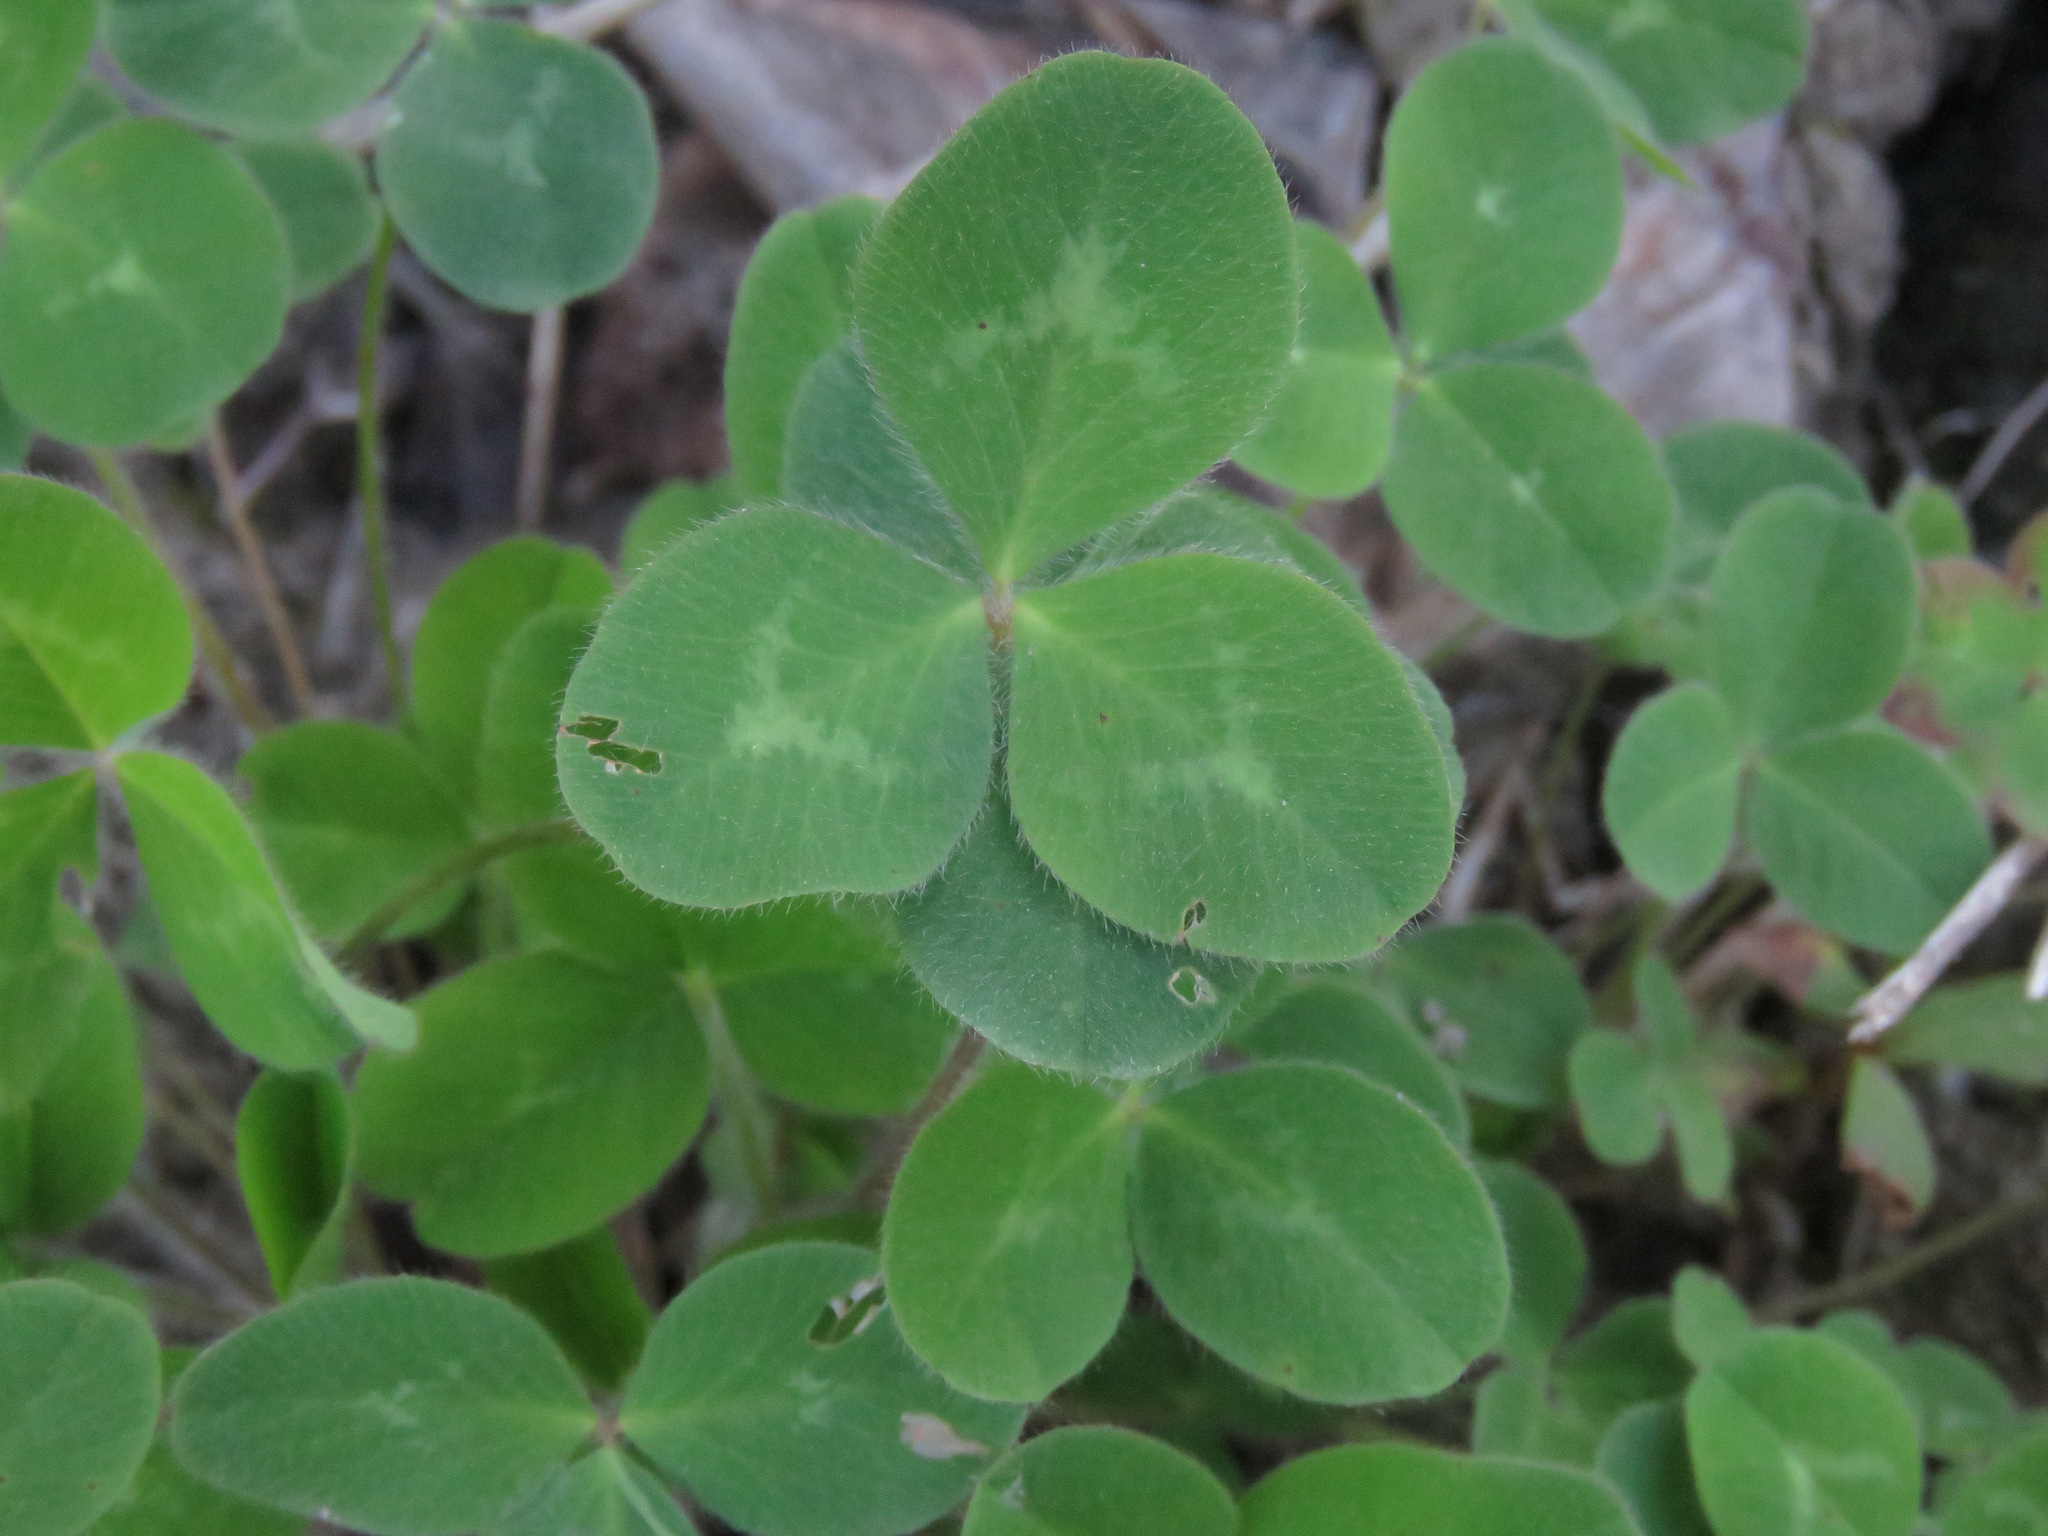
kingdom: Plantae
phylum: Tracheophyta
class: Magnoliopsida
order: Fabales
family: Fabaceae
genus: Trifolium
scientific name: Trifolium pratense
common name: Red clover
